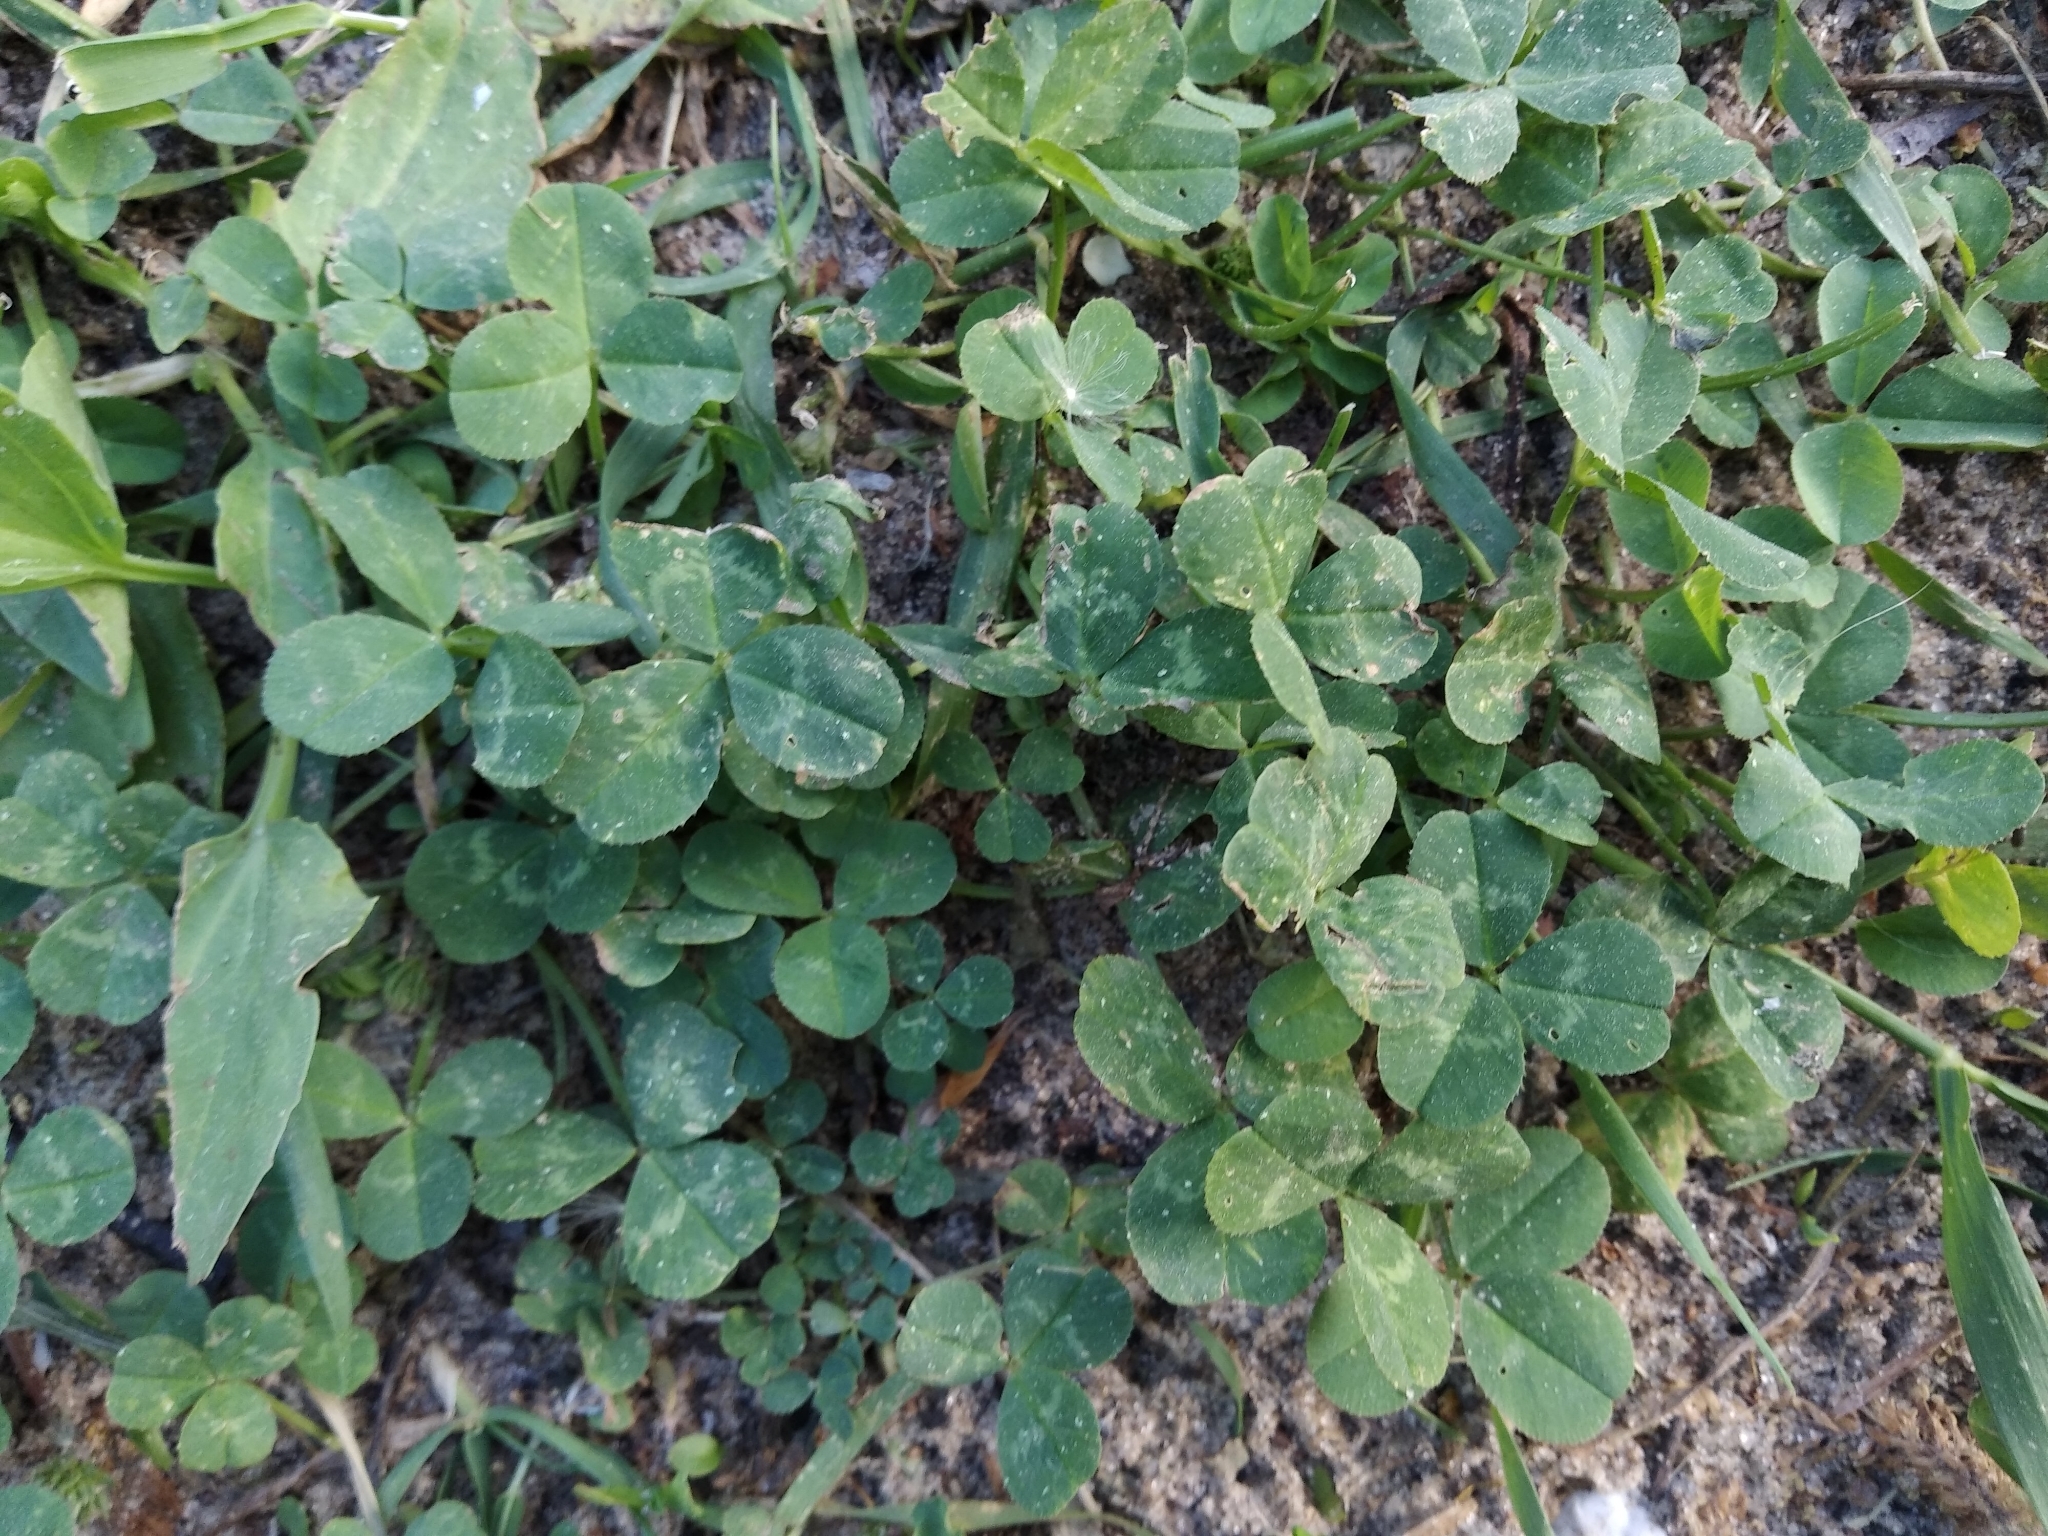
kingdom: Plantae
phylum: Tracheophyta
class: Magnoliopsida
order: Fabales
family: Fabaceae
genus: Trifolium
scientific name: Trifolium repens
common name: White clover
